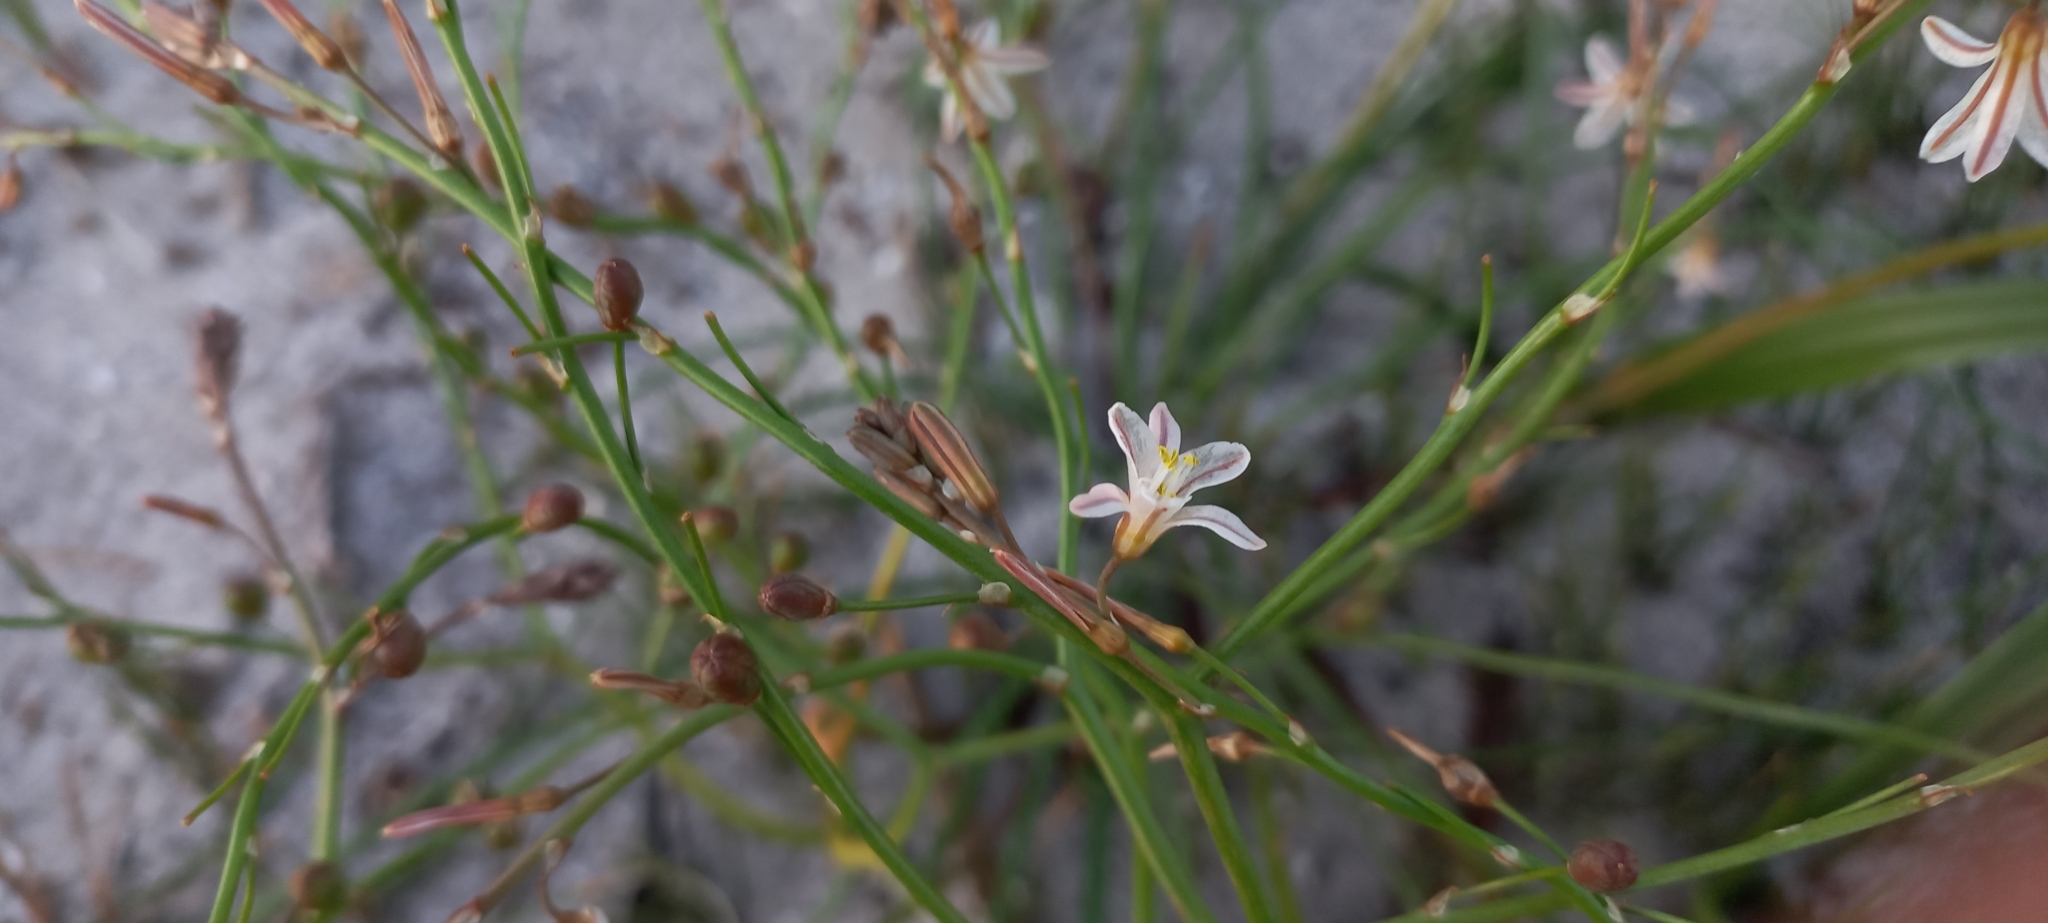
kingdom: Plantae
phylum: Tracheophyta
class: Liliopsida
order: Asparagales
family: Asphodelaceae
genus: Trachyandra
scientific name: Trachyandra divaricata
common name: Dune onionweed
